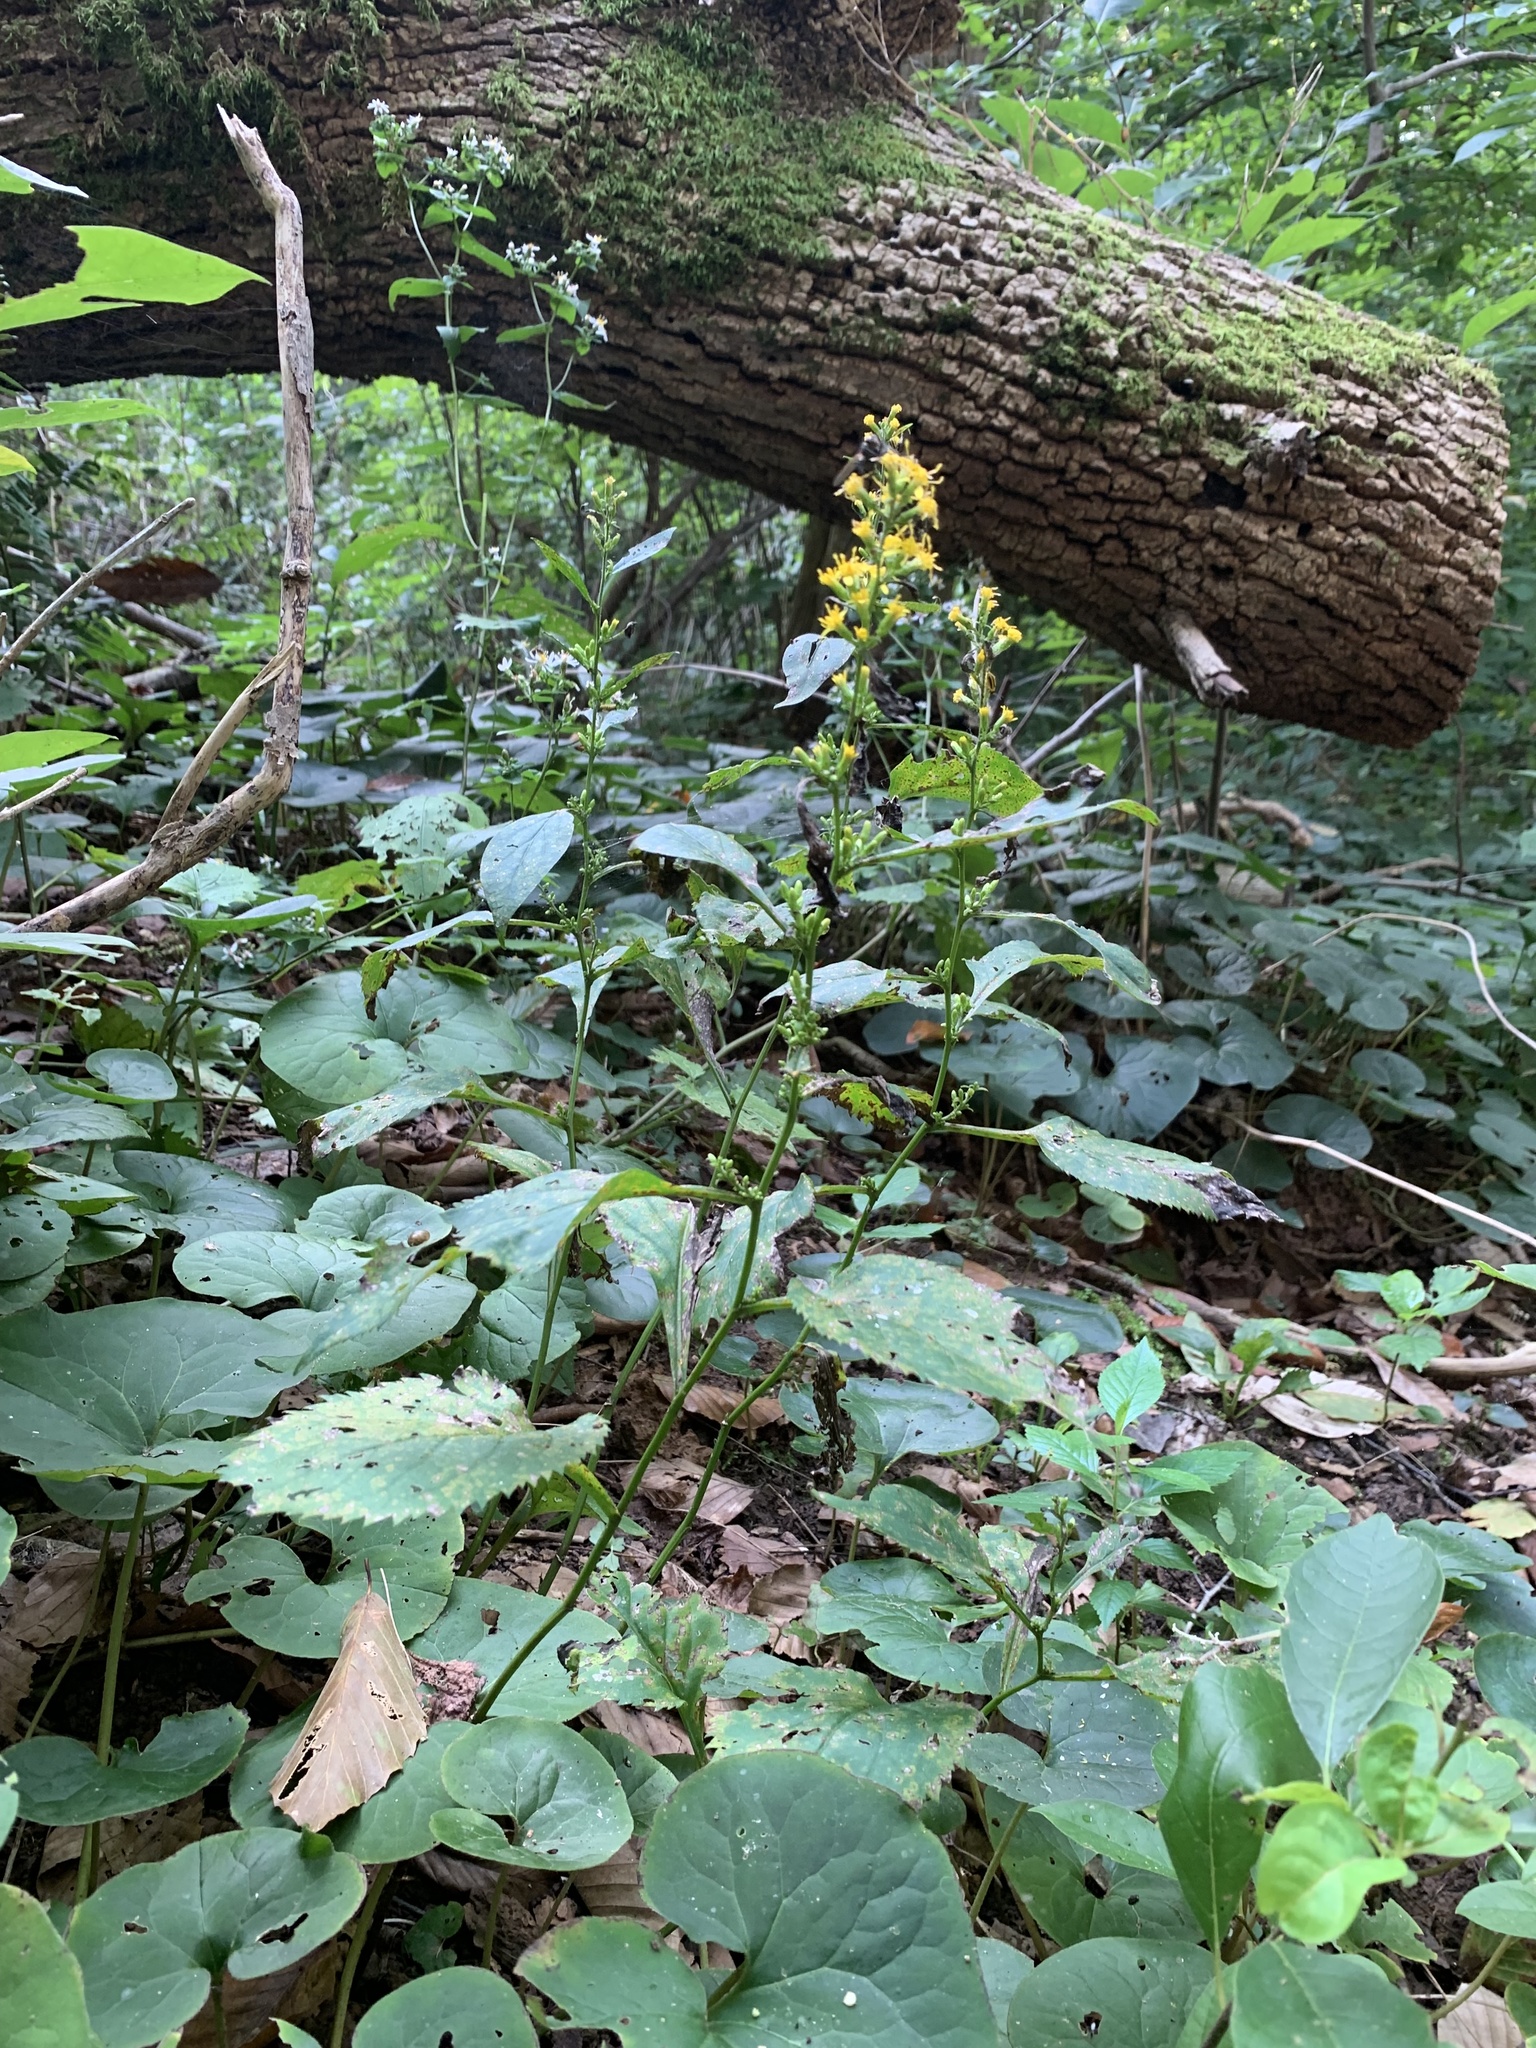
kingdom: Plantae
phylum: Tracheophyta
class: Magnoliopsida
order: Asterales
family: Asteraceae
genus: Solidago
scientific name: Solidago flexicaulis
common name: Zig-zag goldenrod
